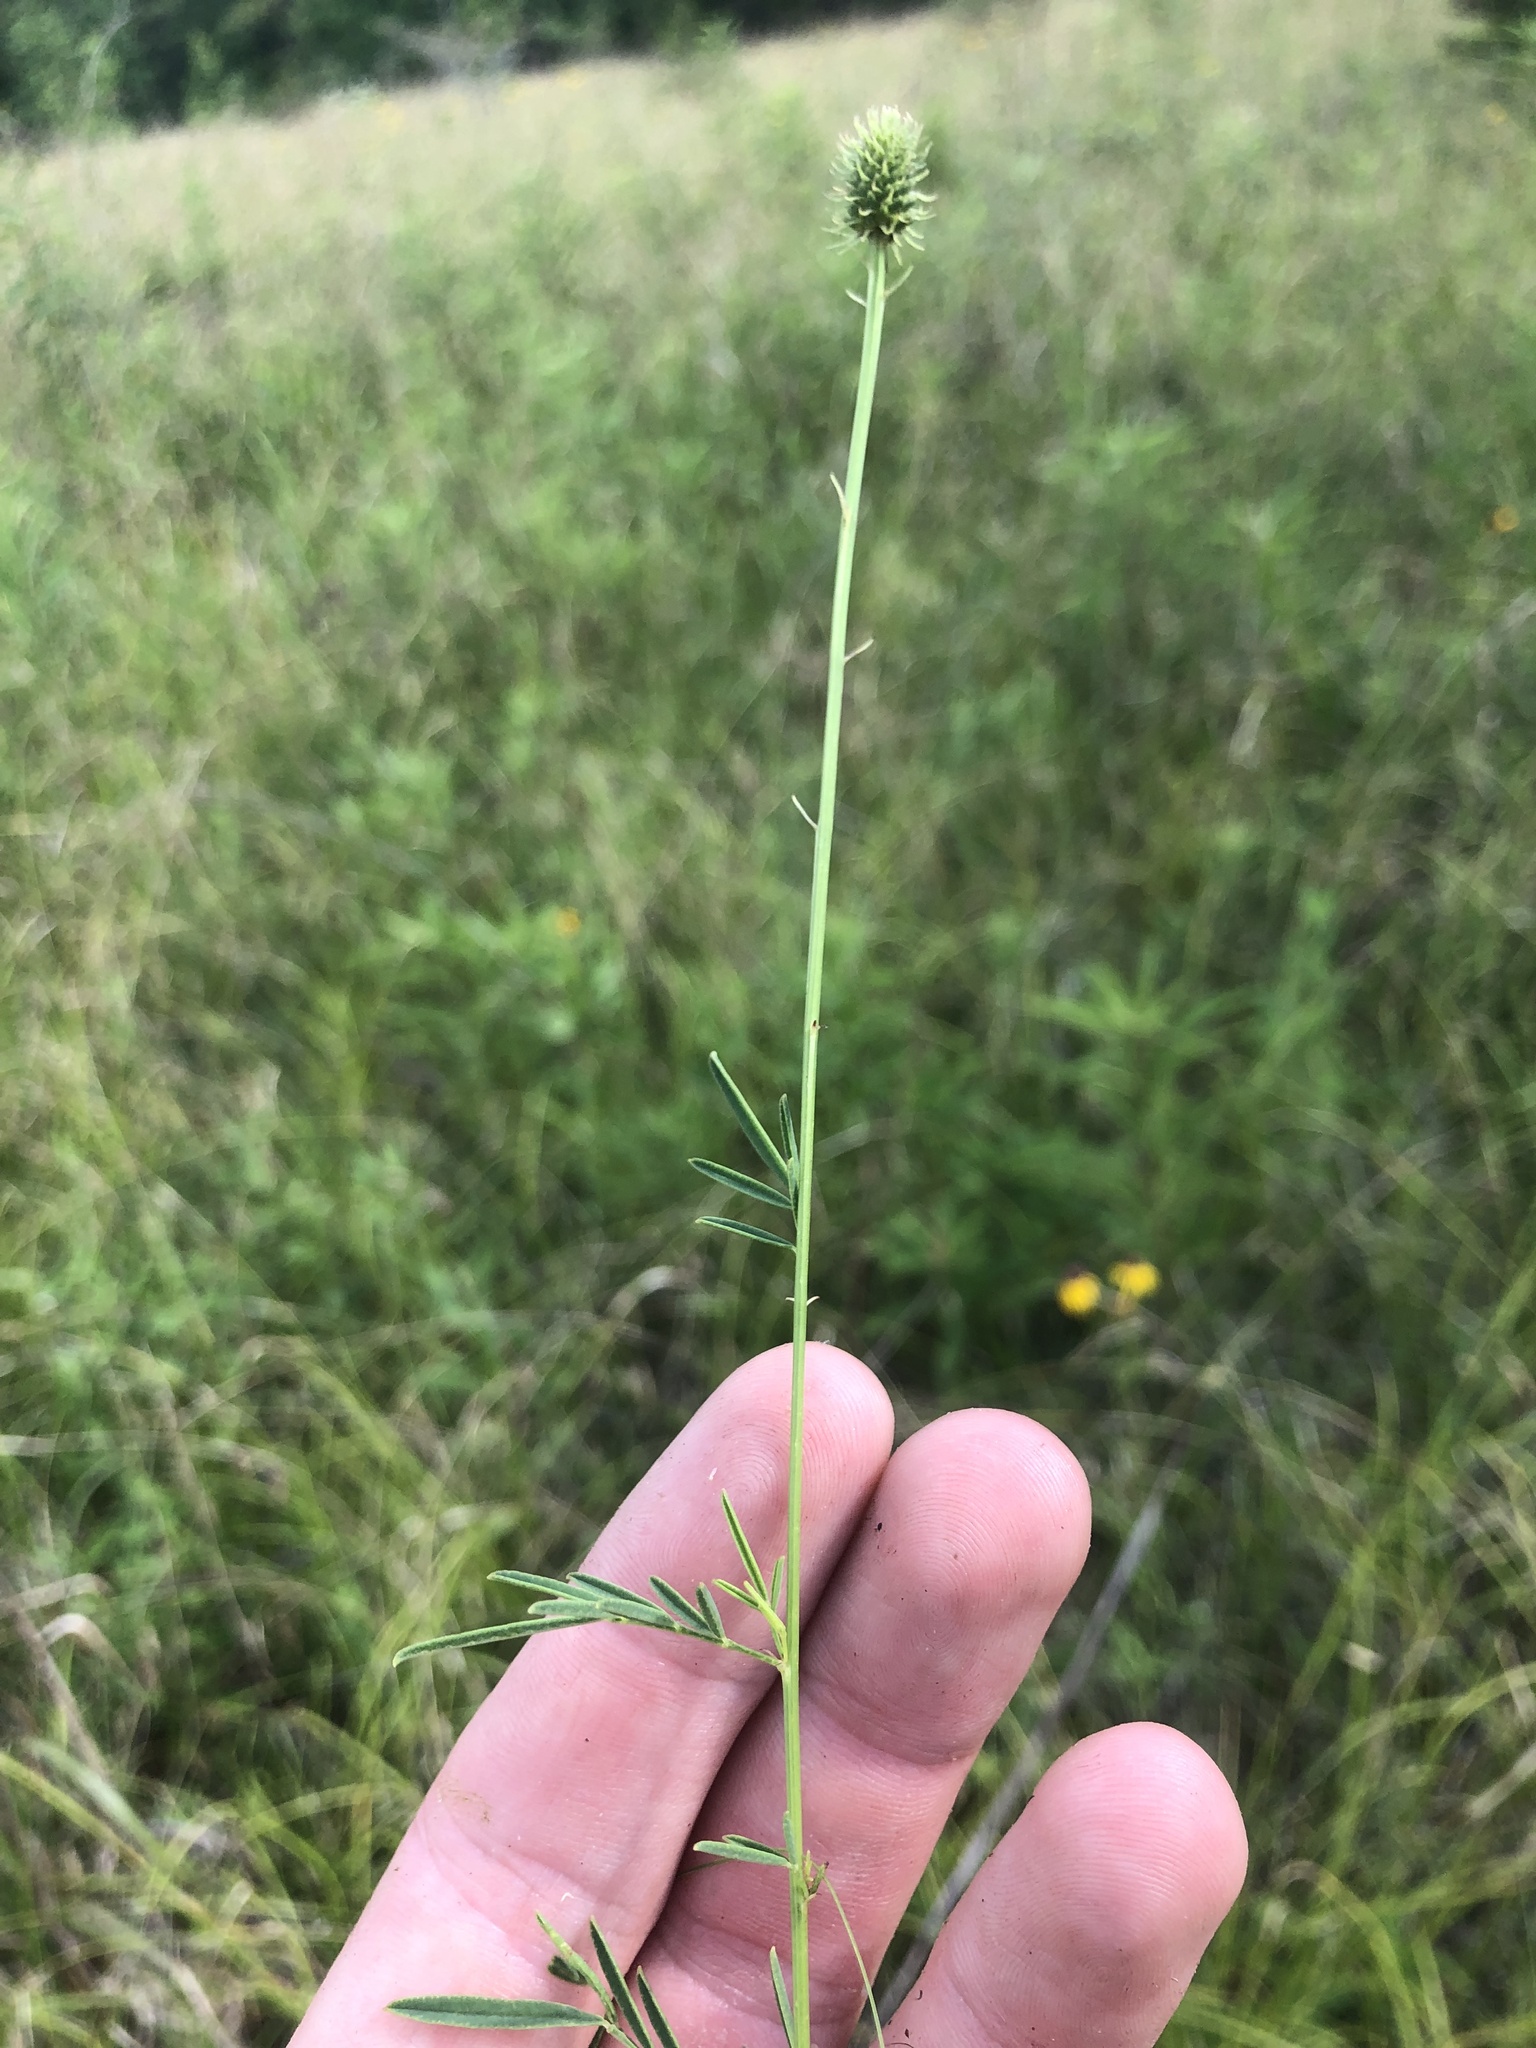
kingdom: Plantae
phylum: Tracheophyta
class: Magnoliopsida
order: Fabales
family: Fabaceae
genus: Dalea
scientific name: Dalea candida
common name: White prairie-clover
